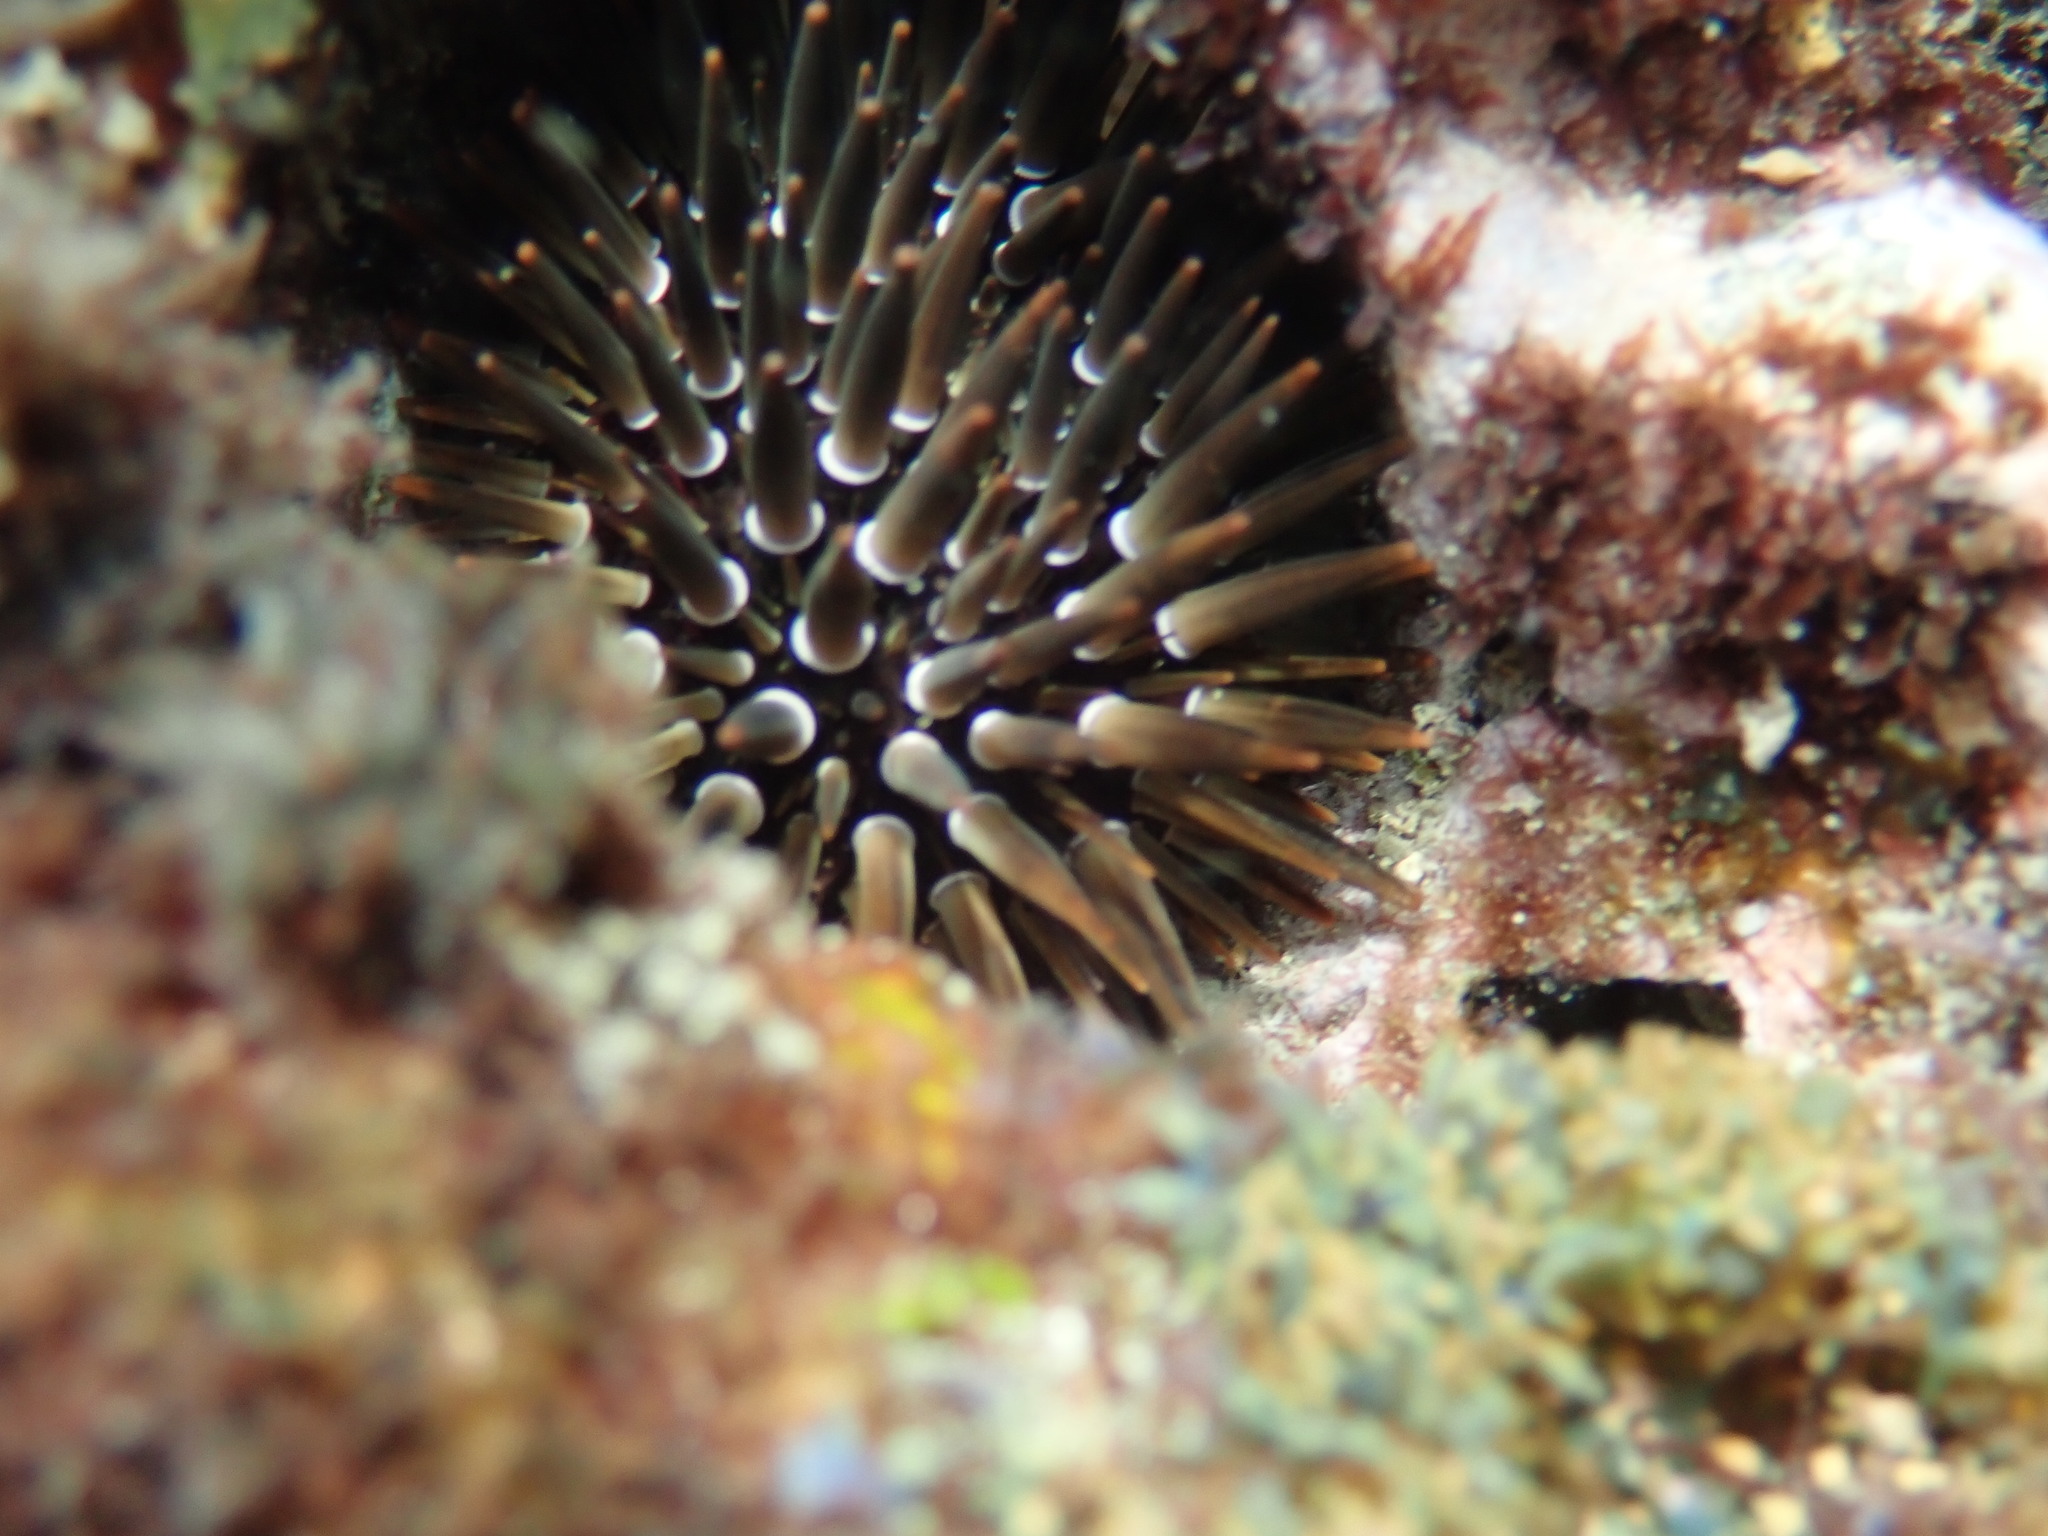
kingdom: Animalia
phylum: Echinodermata
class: Echinoidea
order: Camarodonta
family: Echinometridae
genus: Echinometra
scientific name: Echinometra mathaei
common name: Rock-boring urchin
